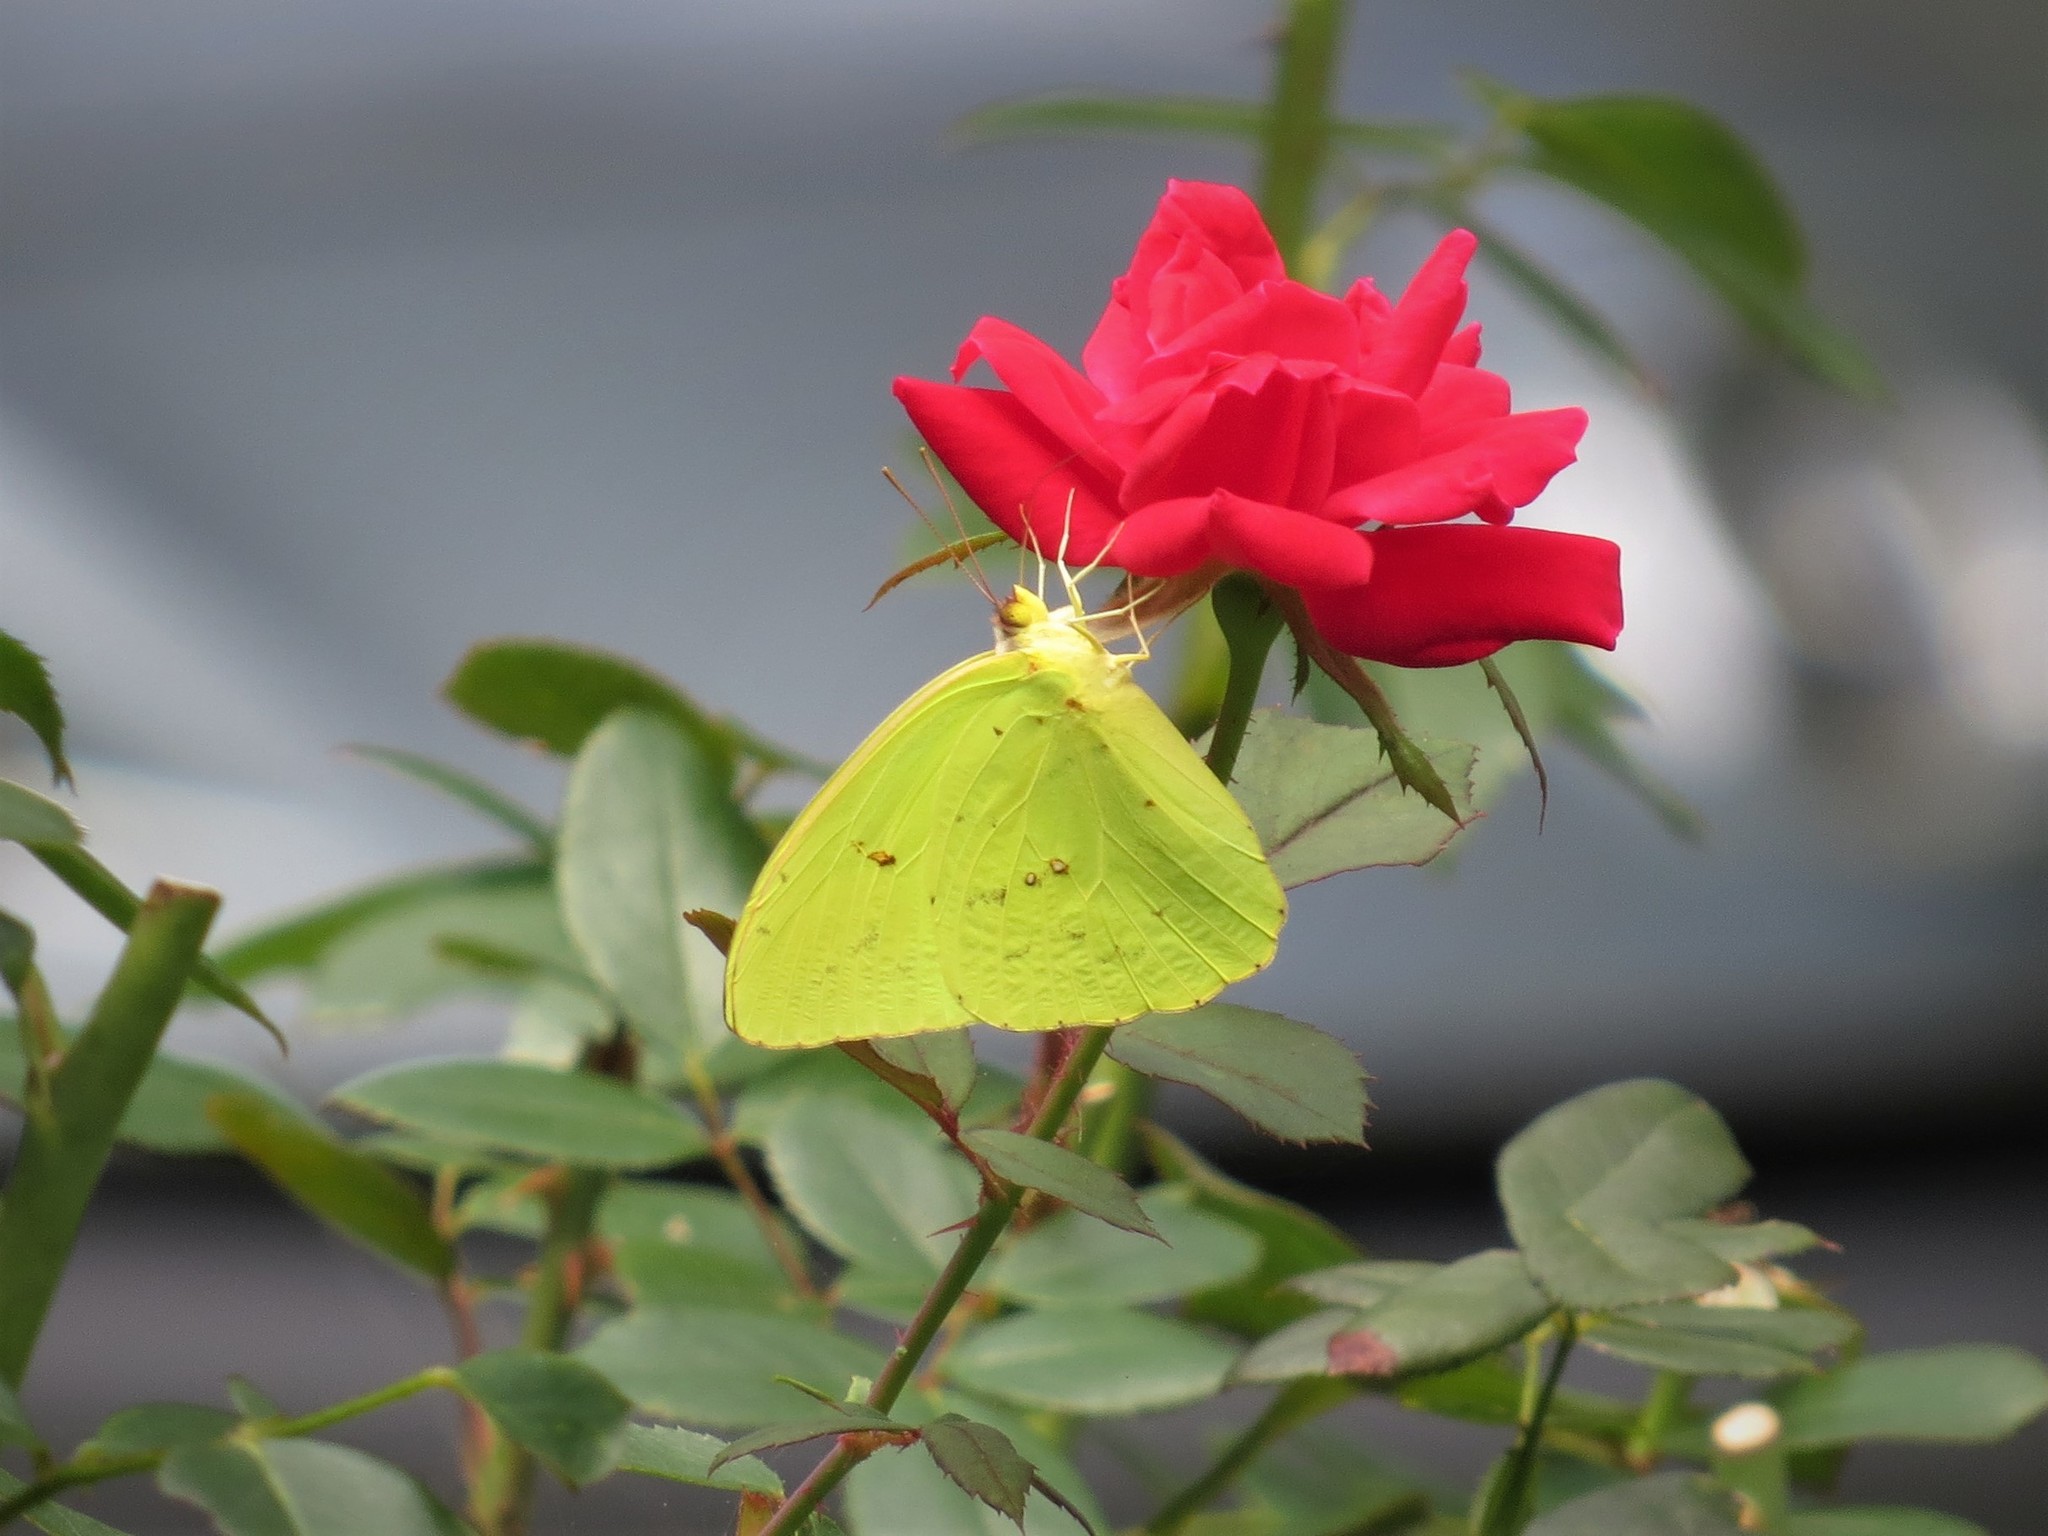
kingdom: Animalia
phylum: Arthropoda
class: Insecta
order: Lepidoptera
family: Pieridae
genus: Phoebis
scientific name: Phoebis sennae
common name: Cloudless sulphur
